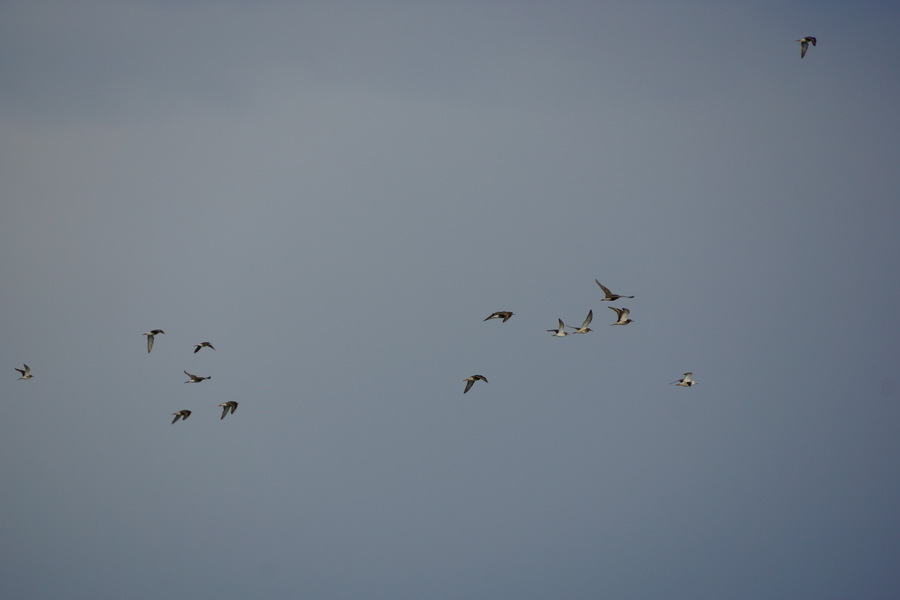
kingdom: Animalia
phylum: Chordata
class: Aves
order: Charadriiformes
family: Scolopacidae
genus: Calidris
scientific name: Calidris pugnax
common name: Ruff
